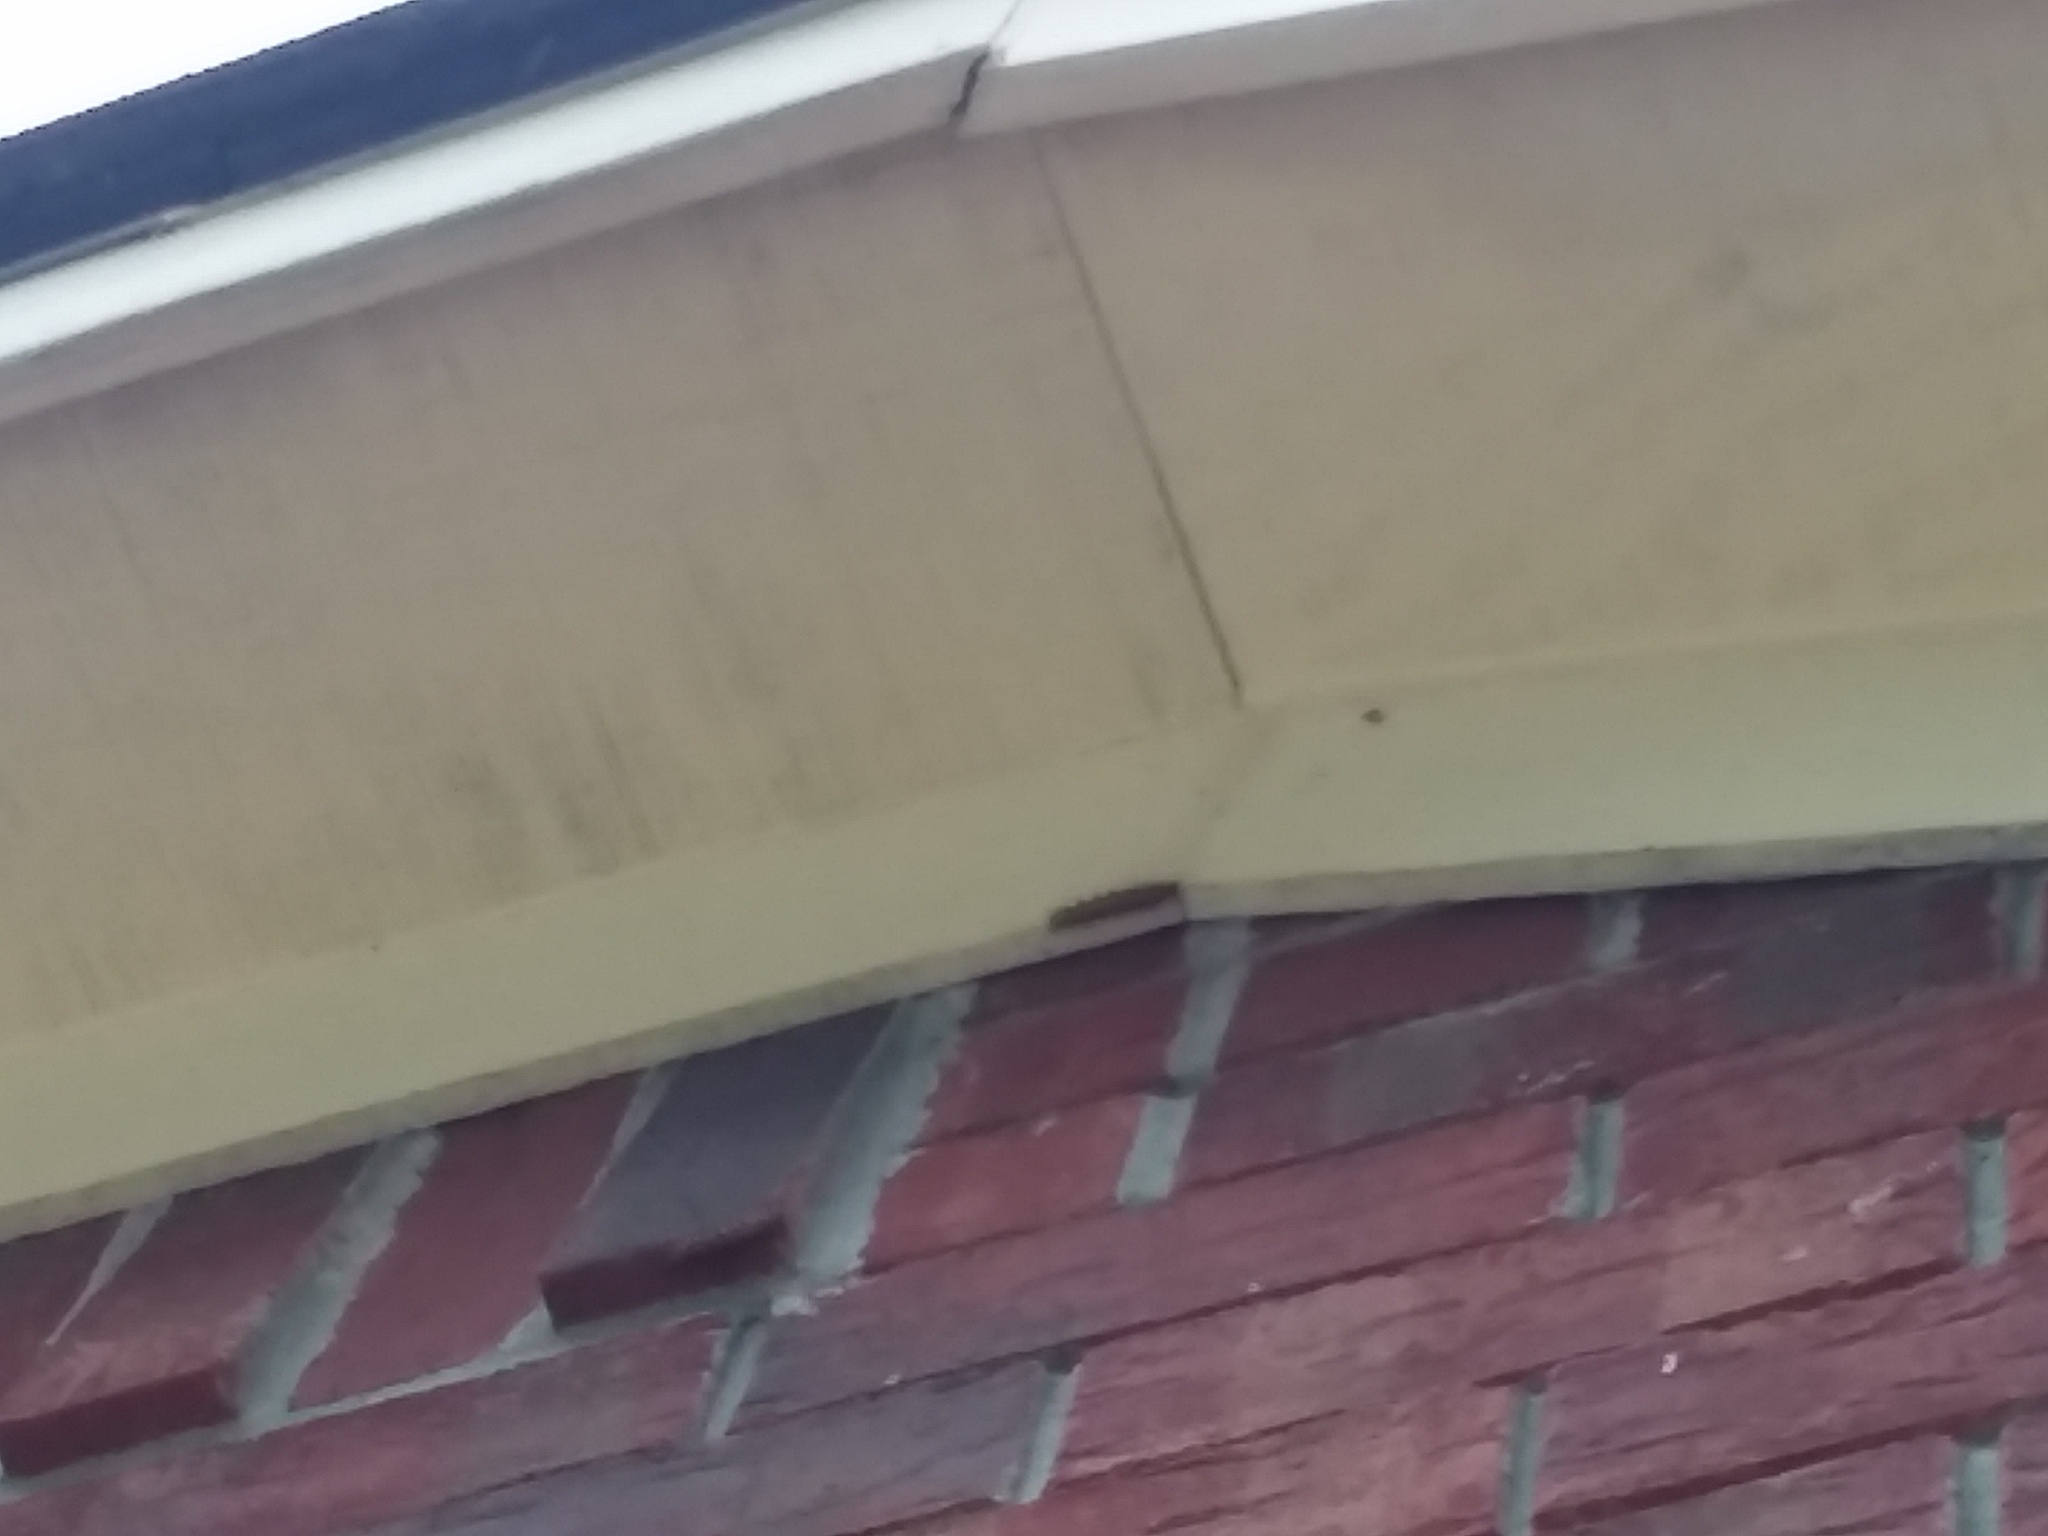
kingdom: Animalia
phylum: Arthropoda
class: Insecta
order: Lepidoptera
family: Nymphalidae
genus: Dione
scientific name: Dione vanillae
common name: Gulf fritillary
